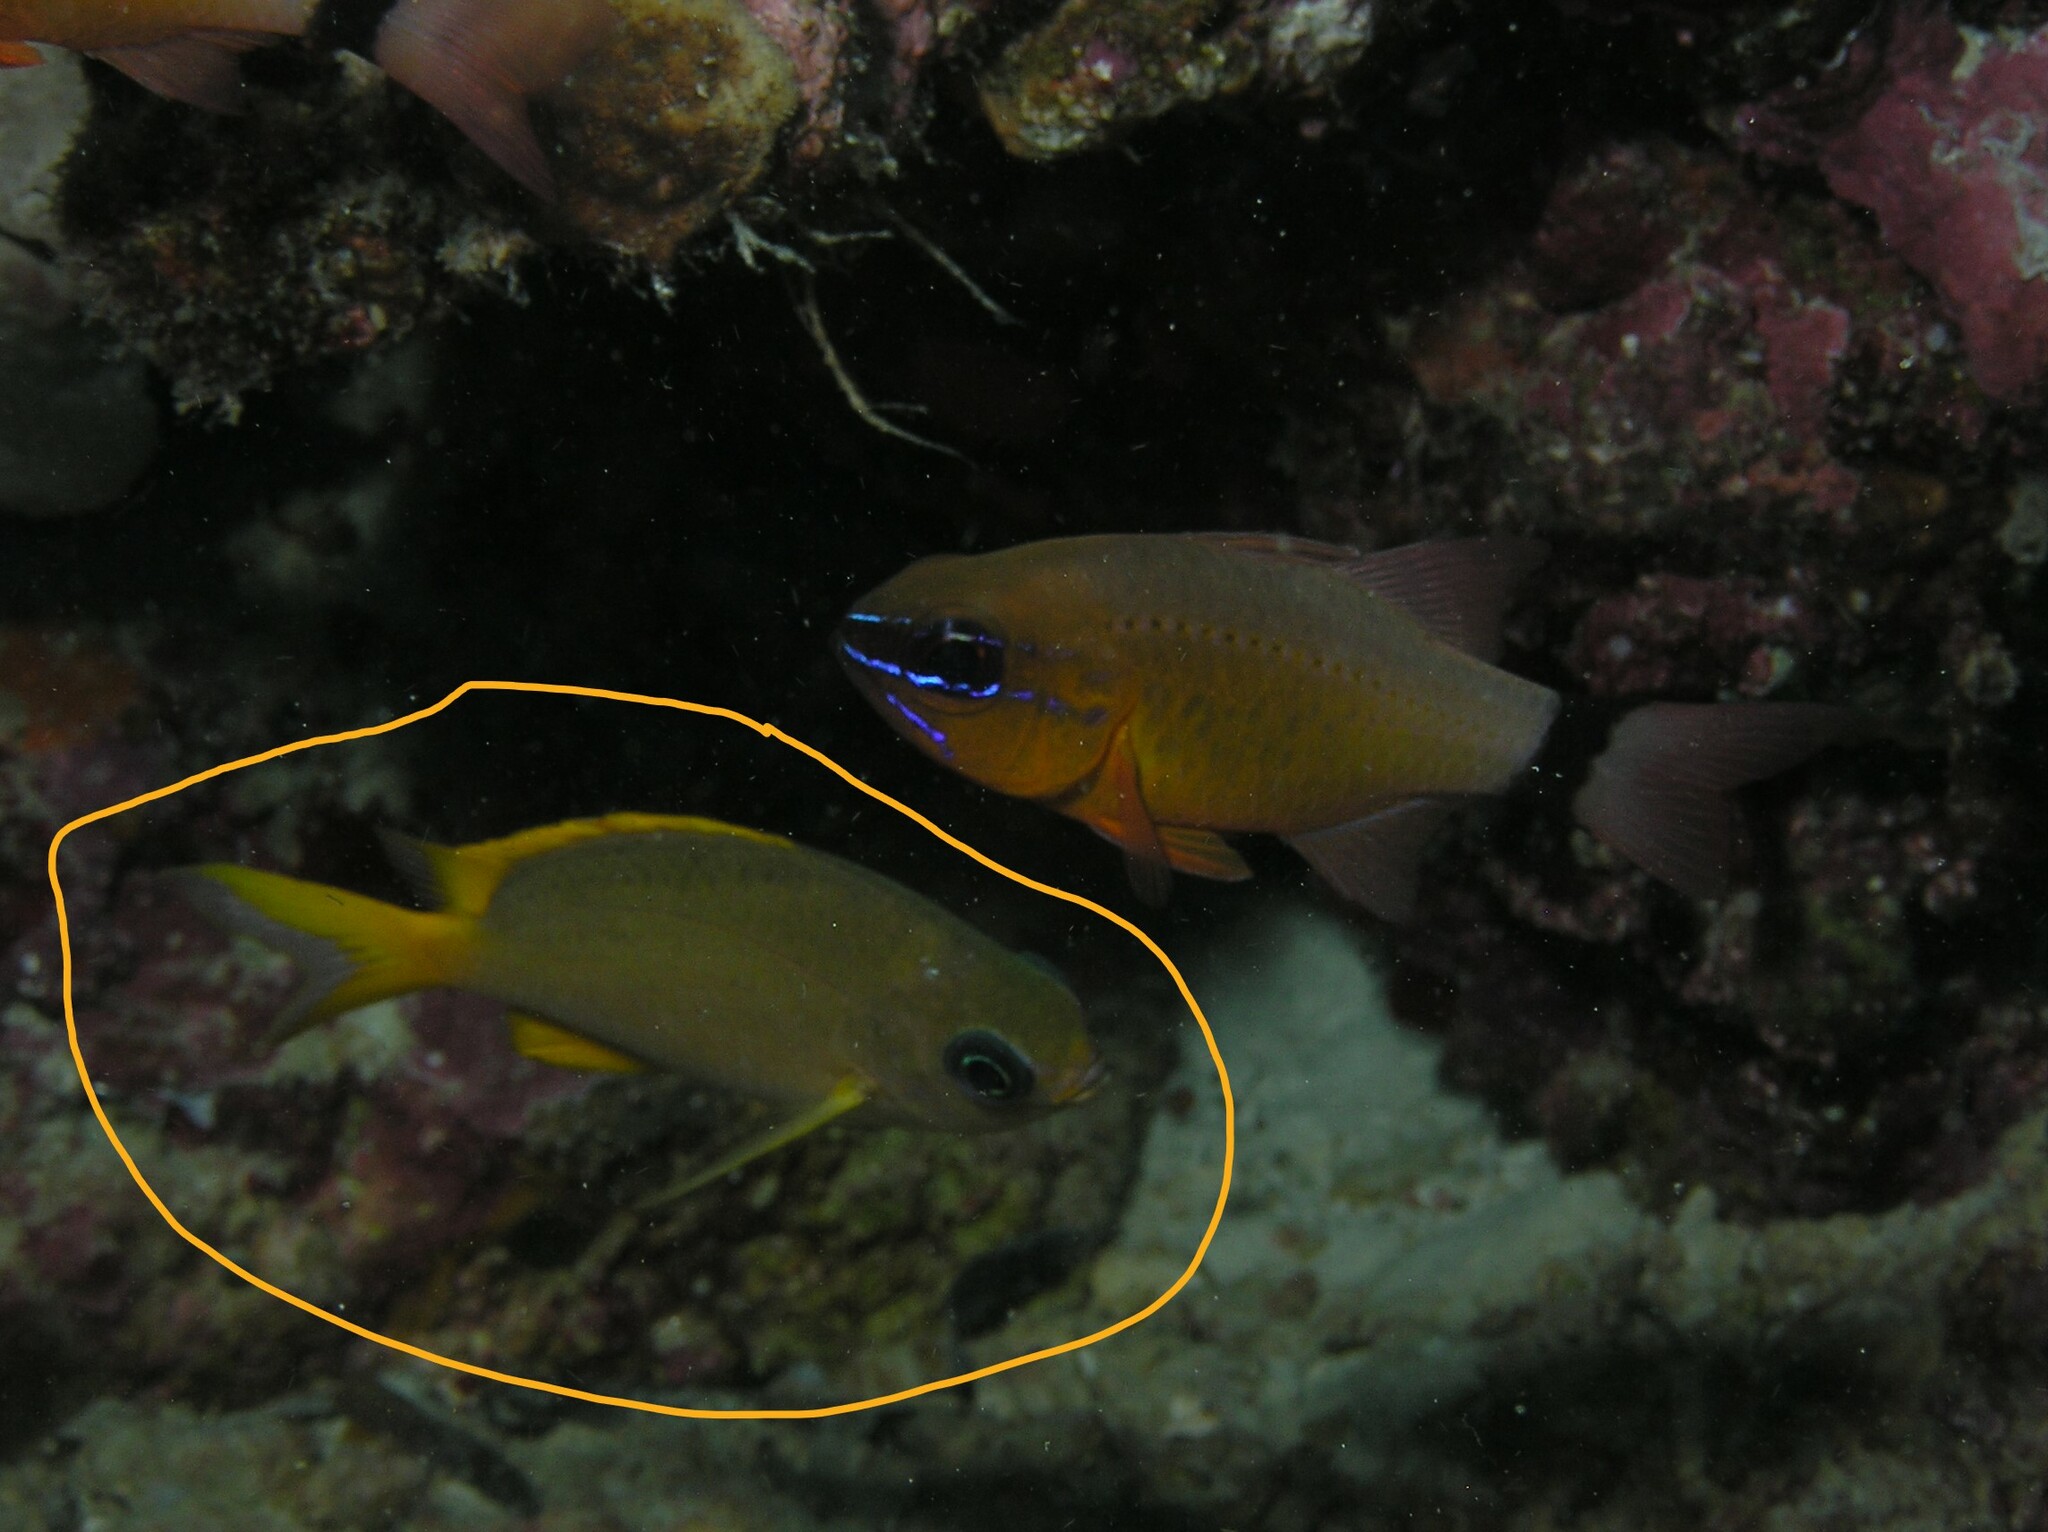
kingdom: Animalia
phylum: Chordata
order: Perciformes
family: Pomacentridae
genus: Chromis
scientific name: Chromis analis
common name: Yellow chromis
